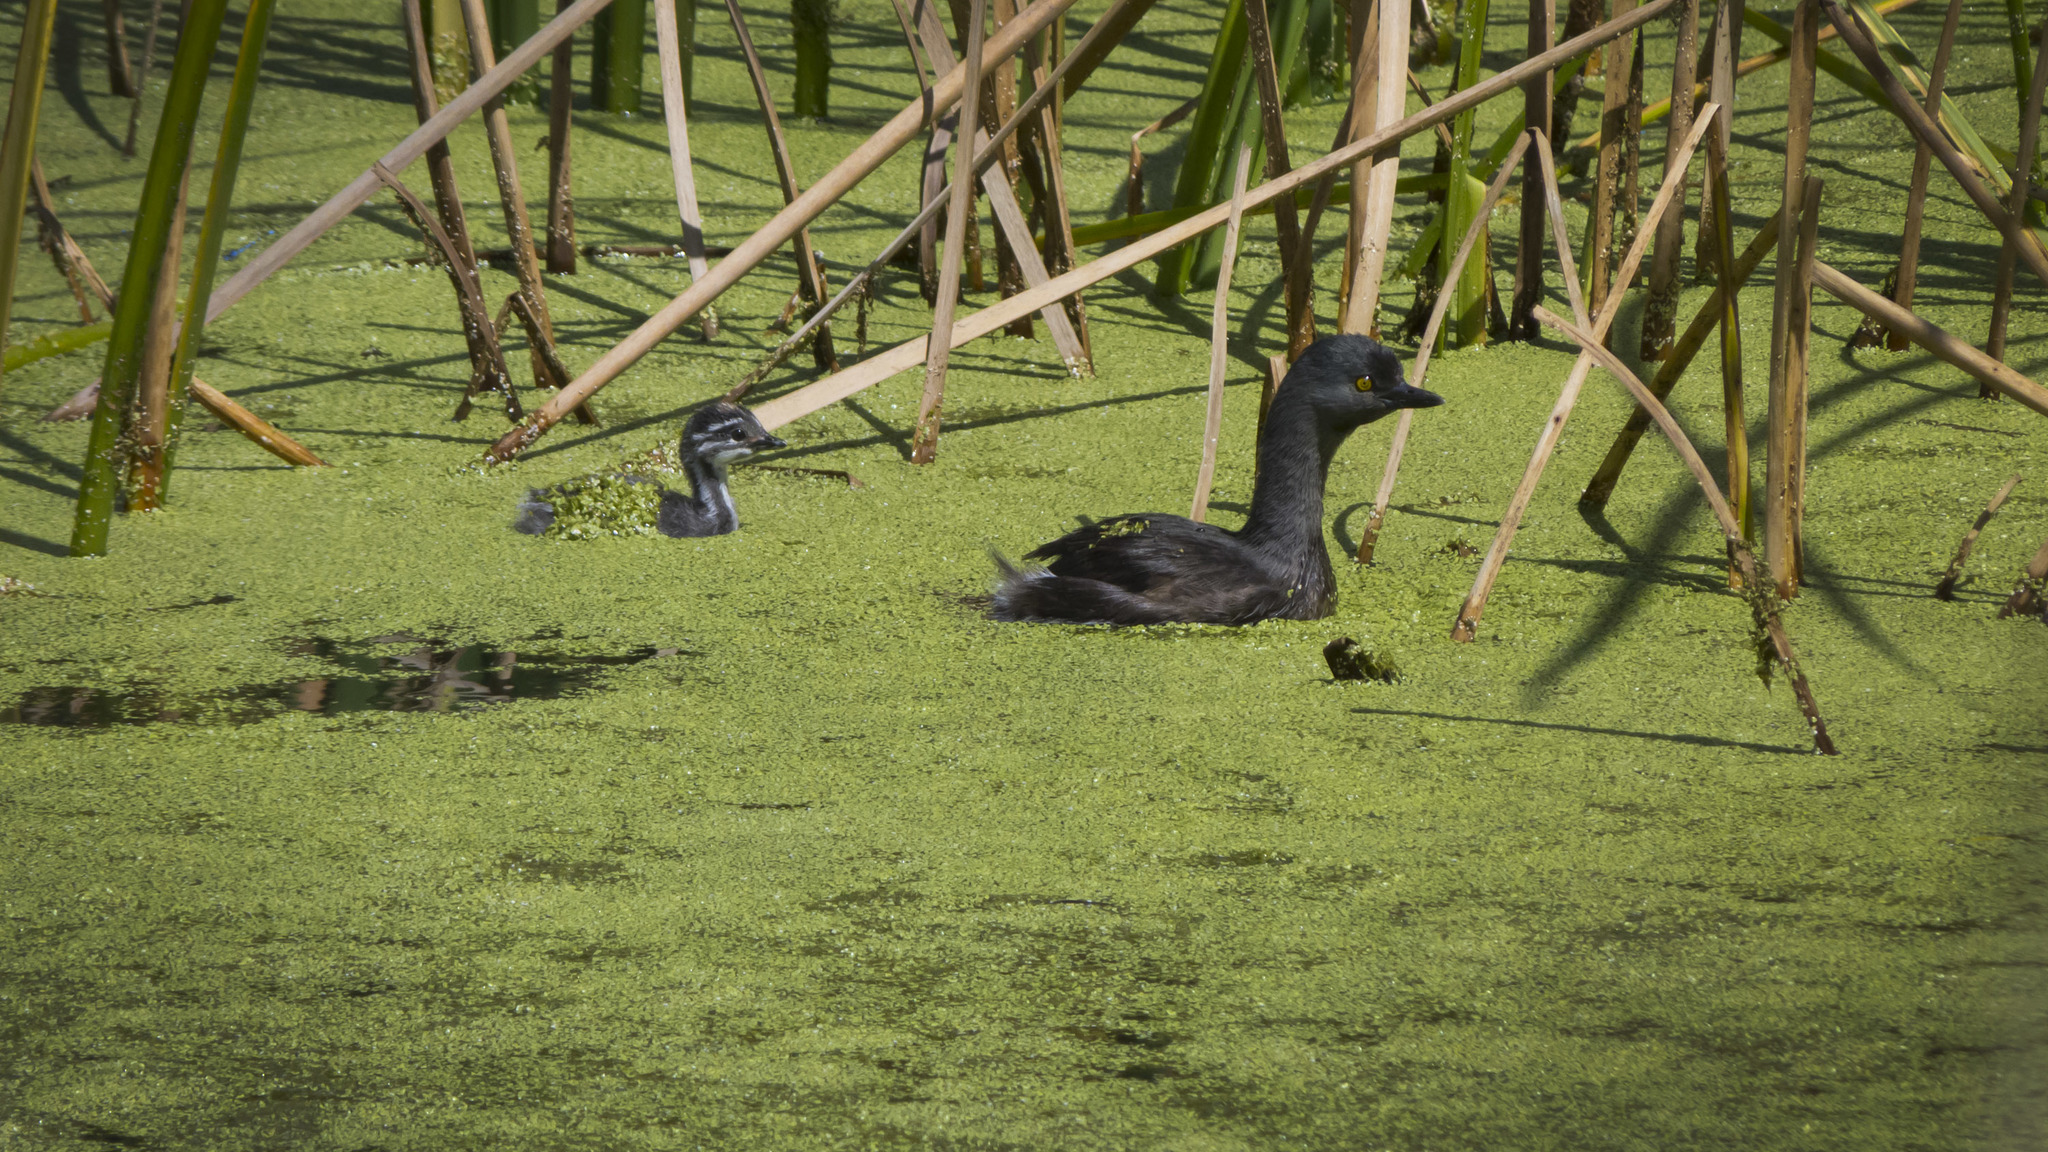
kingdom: Animalia
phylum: Chordata
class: Aves
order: Podicipediformes
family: Podicipedidae
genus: Tachybaptus
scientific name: Tachybaptus dominicus
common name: Least grebe
